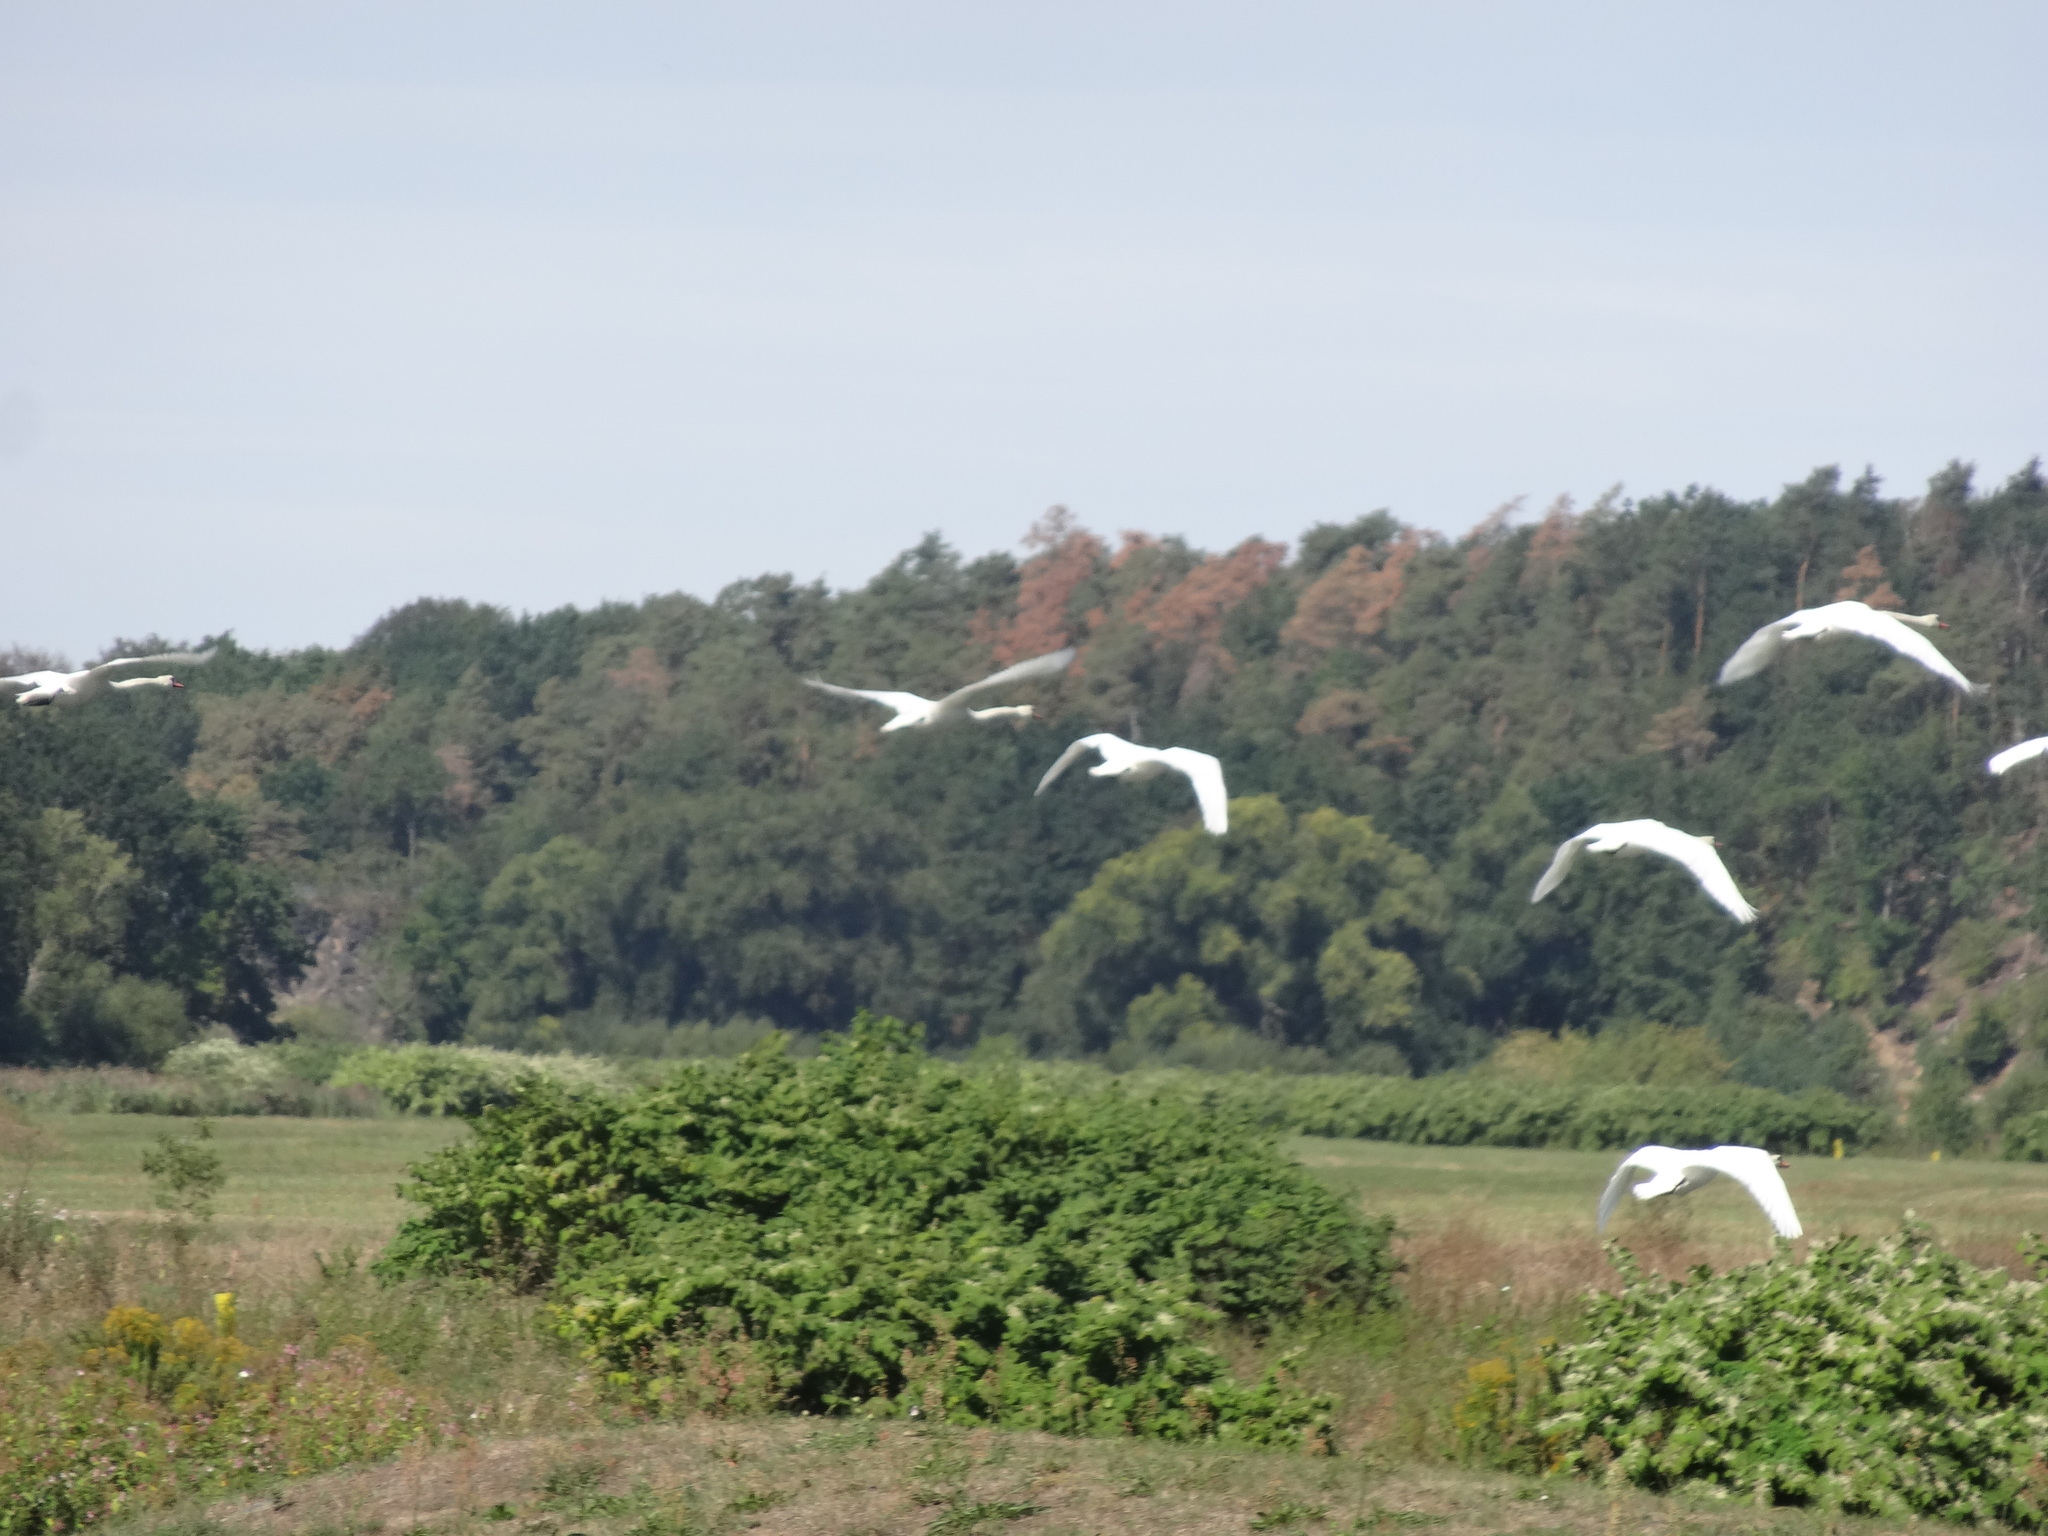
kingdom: Animalia
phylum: Chordata
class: Aves
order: Anseriformes
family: Anatidae
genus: Cygnus
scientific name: Cygnus olor
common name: Mute swan
